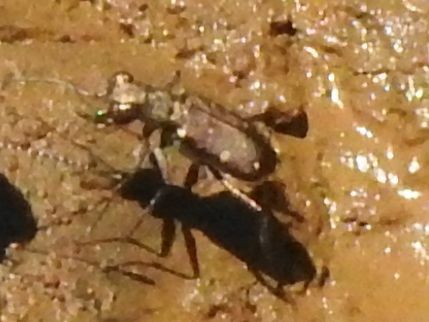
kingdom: Animalia
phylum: Arthropoda
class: Insecta
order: Coleoptera
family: Carabidae
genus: Cylindera
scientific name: Cylindera disjuncta
